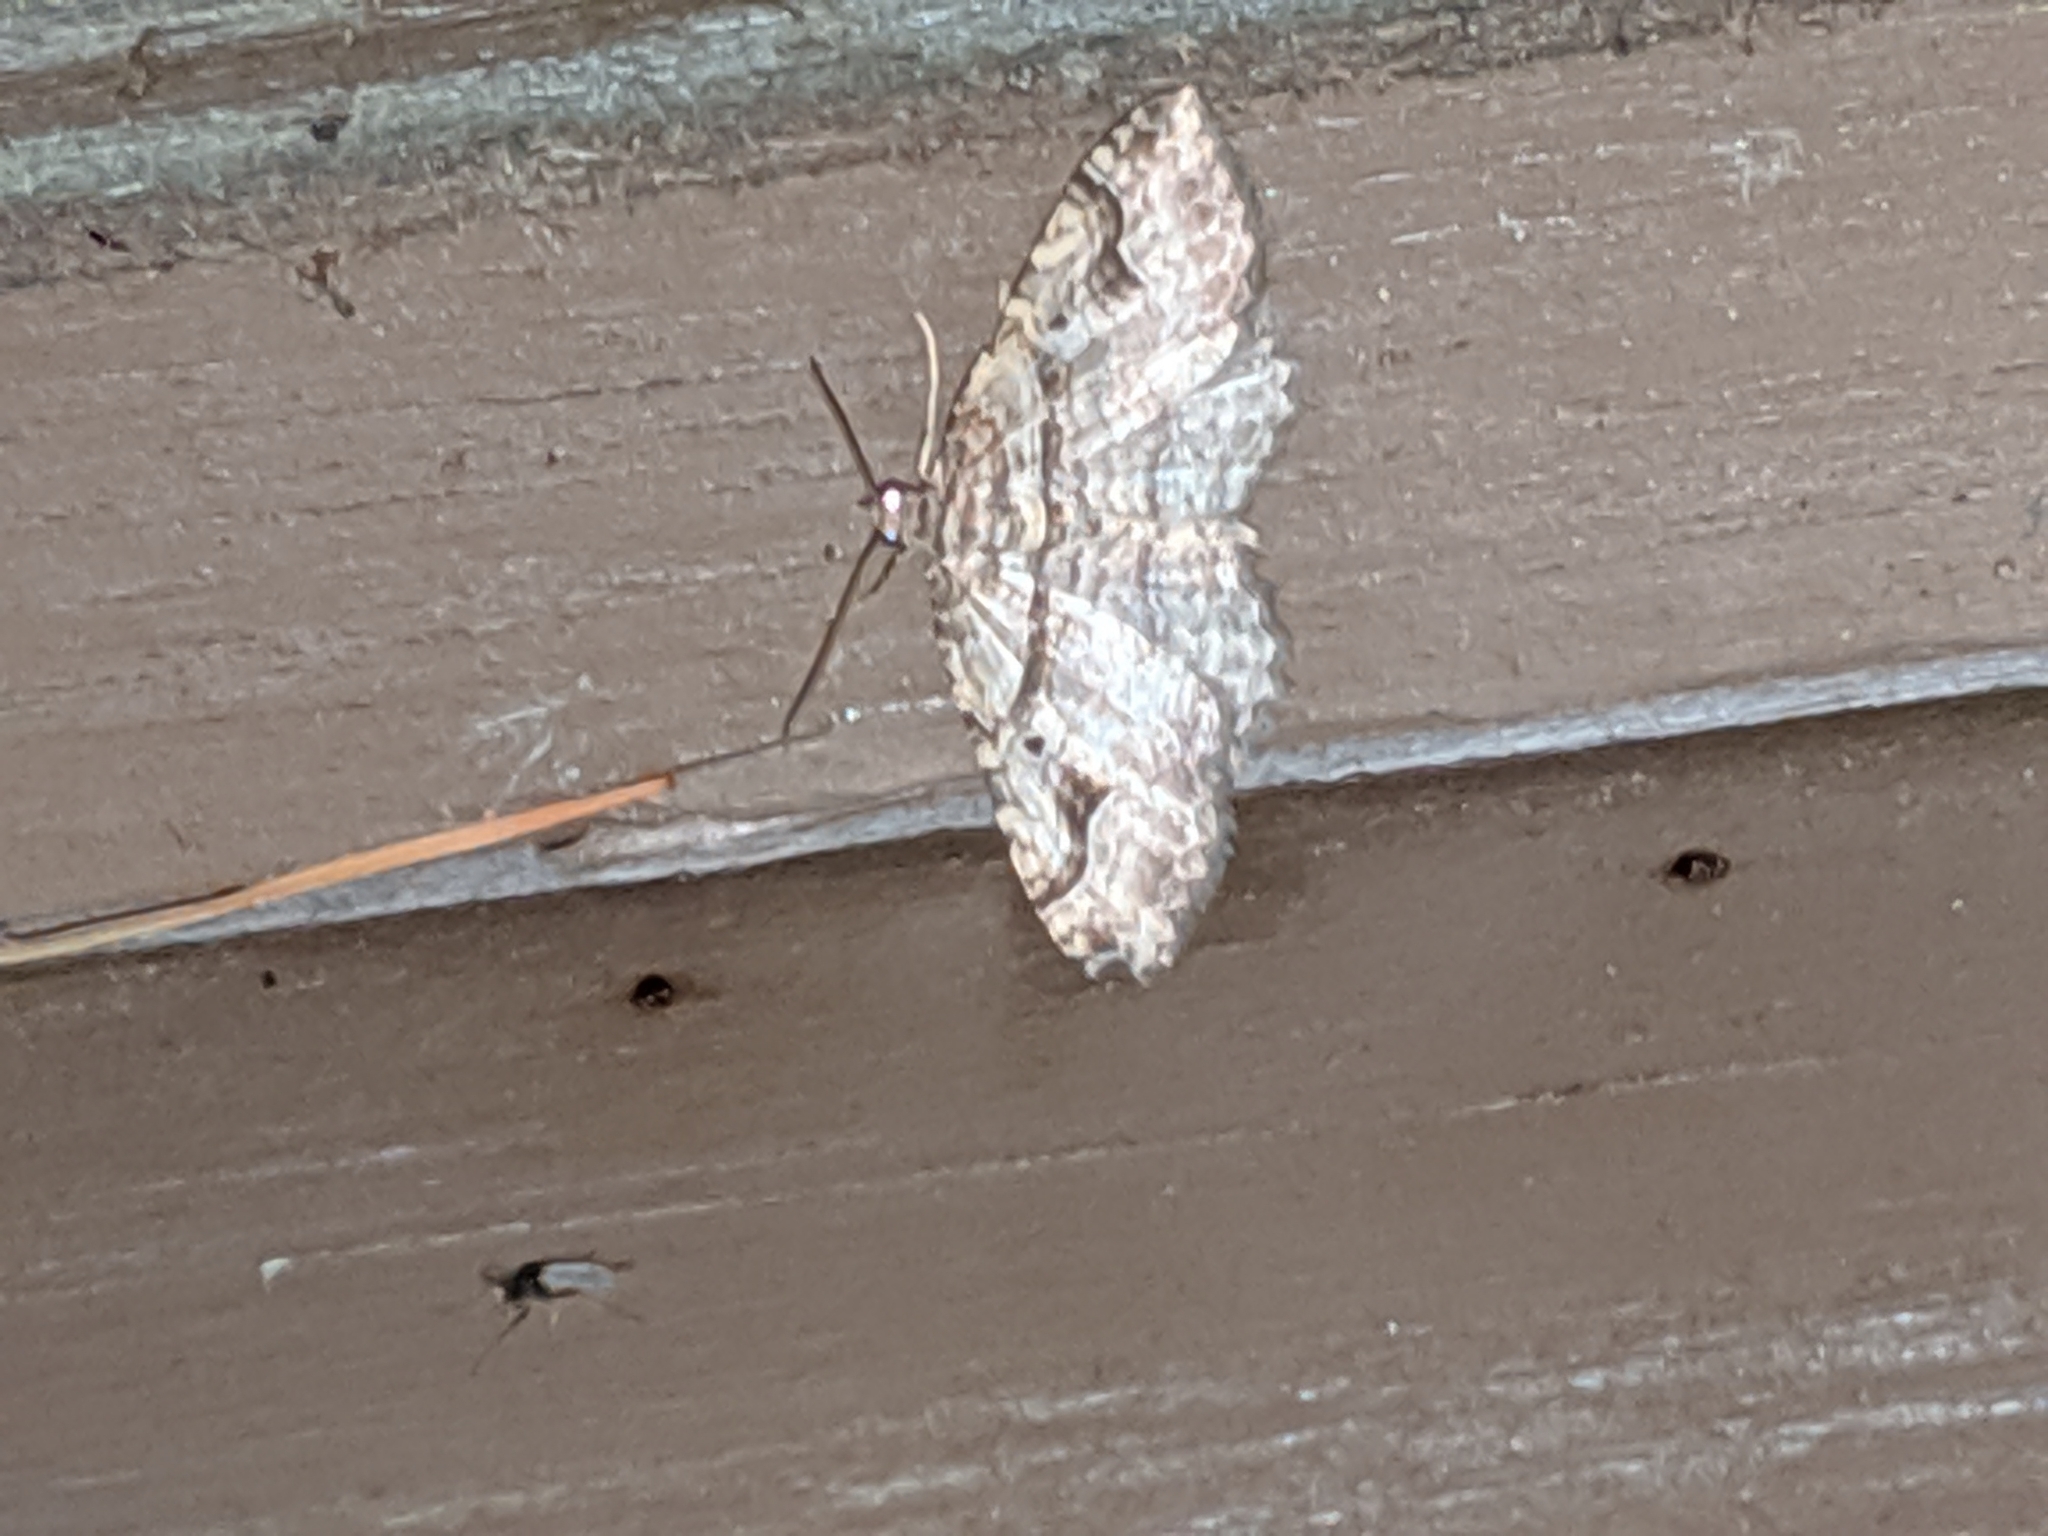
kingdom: Animalia
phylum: Arthropoda
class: Insecta
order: Lepidoptera
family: Geometridae
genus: Costaconvexa
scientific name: Costaconvexa centrostrigaria
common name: Bent-line carpet
